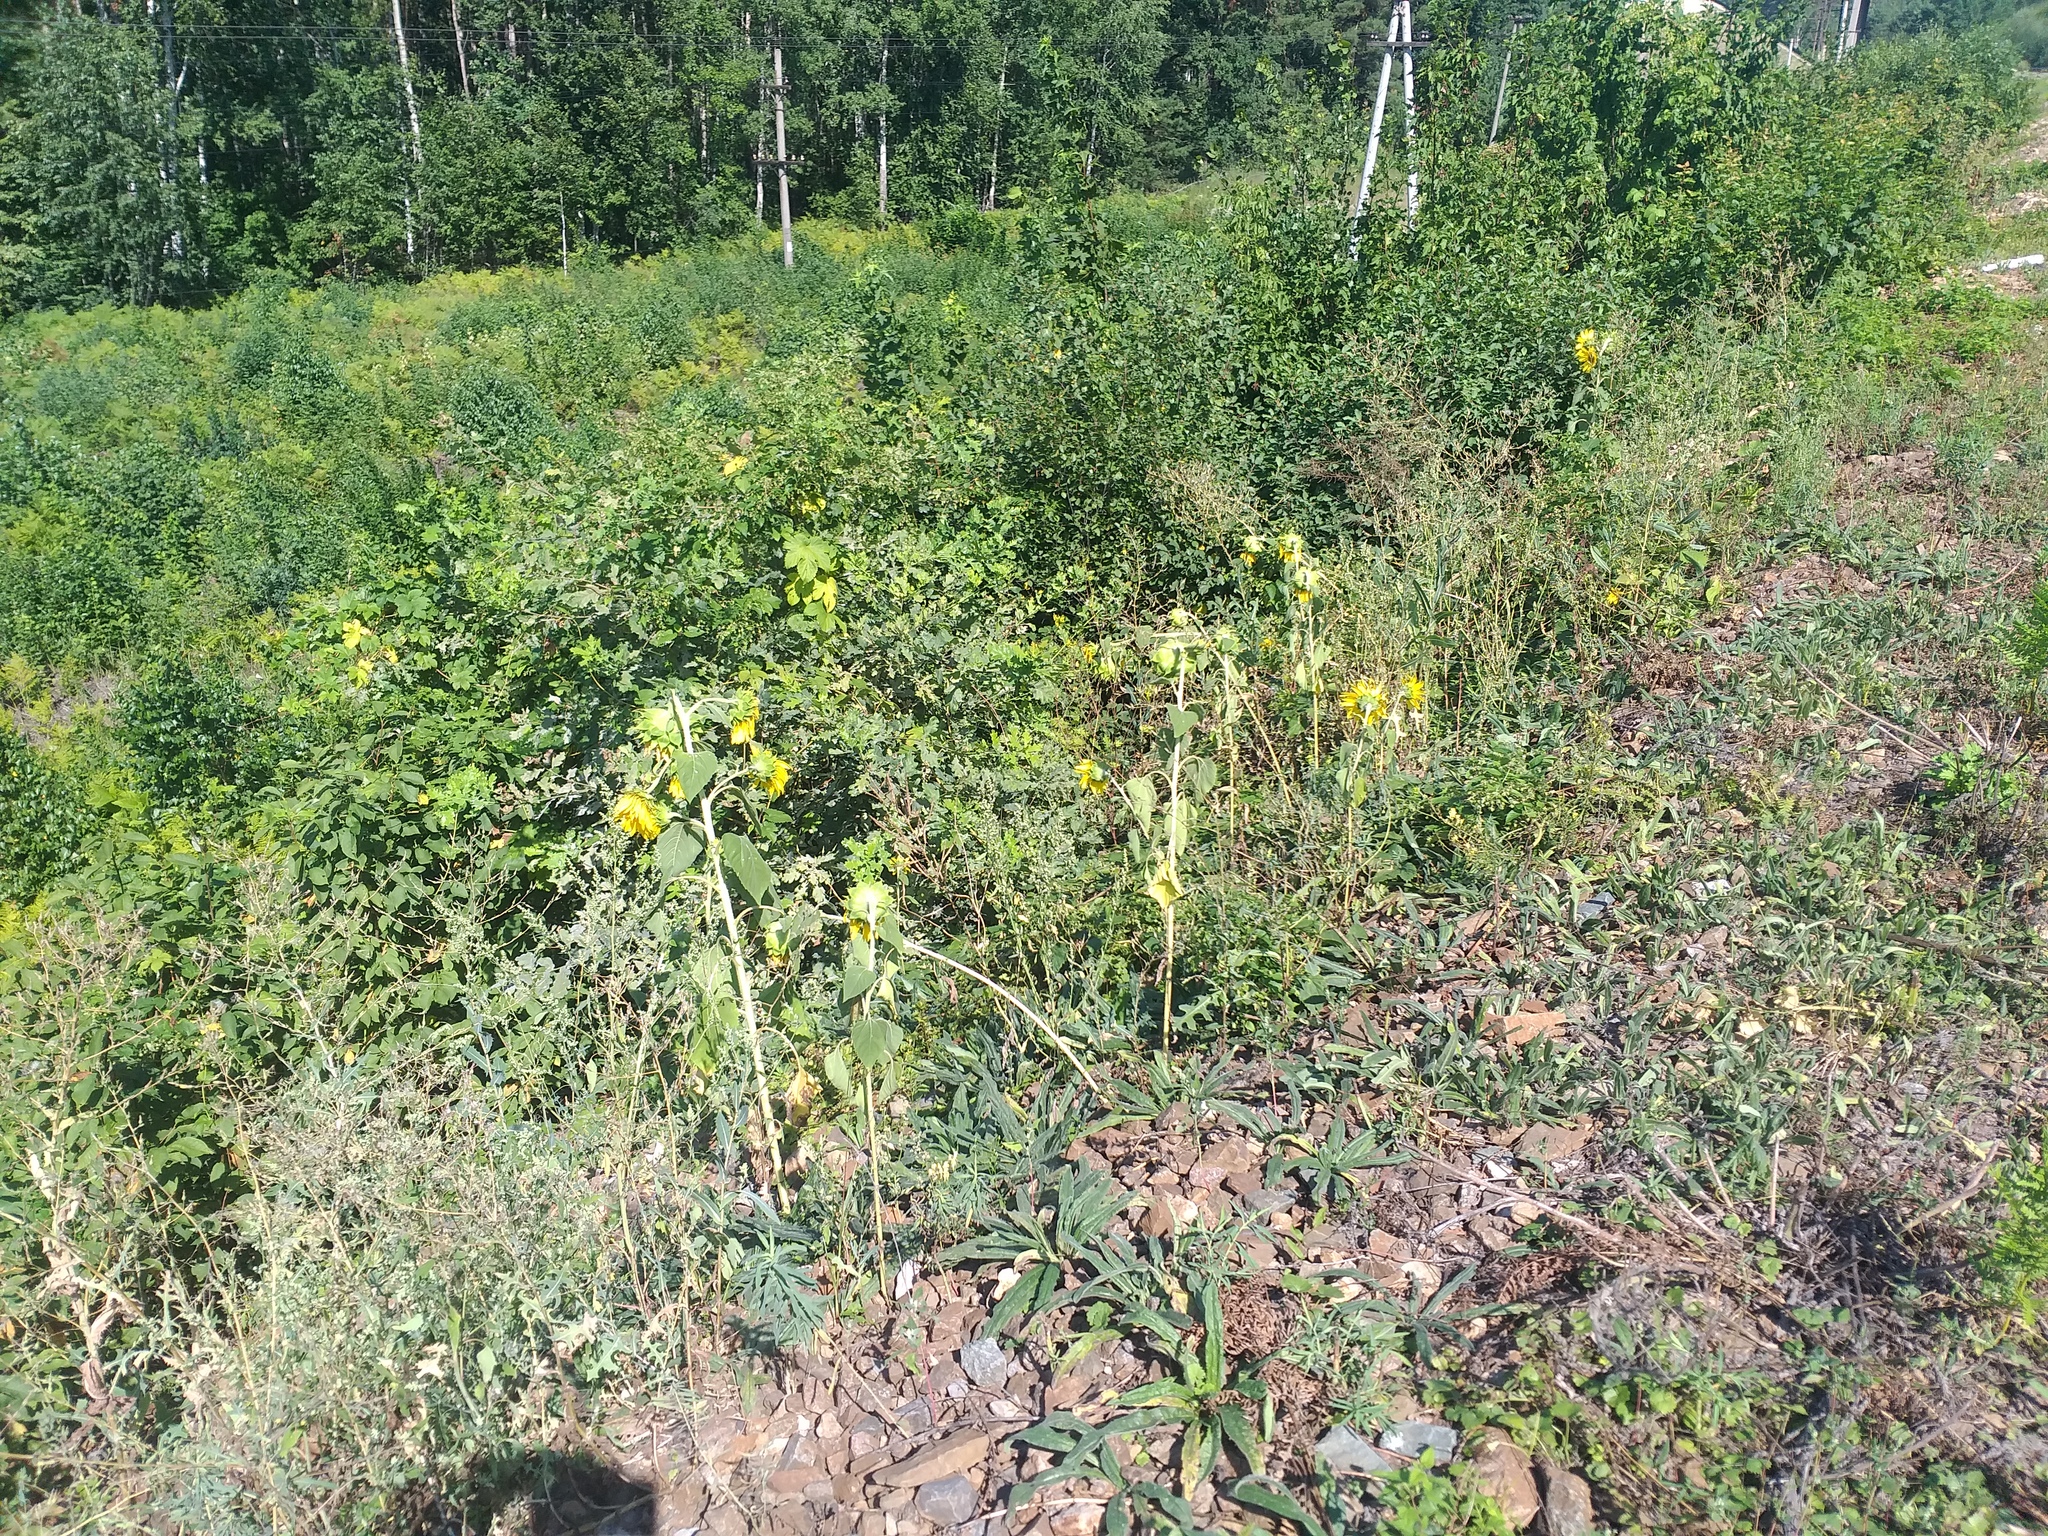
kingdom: Plantae
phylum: Tracheophyta
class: Magnoliopsida
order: Asterales
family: Asteraceae
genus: Helianthus
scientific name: Helianthus annuus
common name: Sunflower
